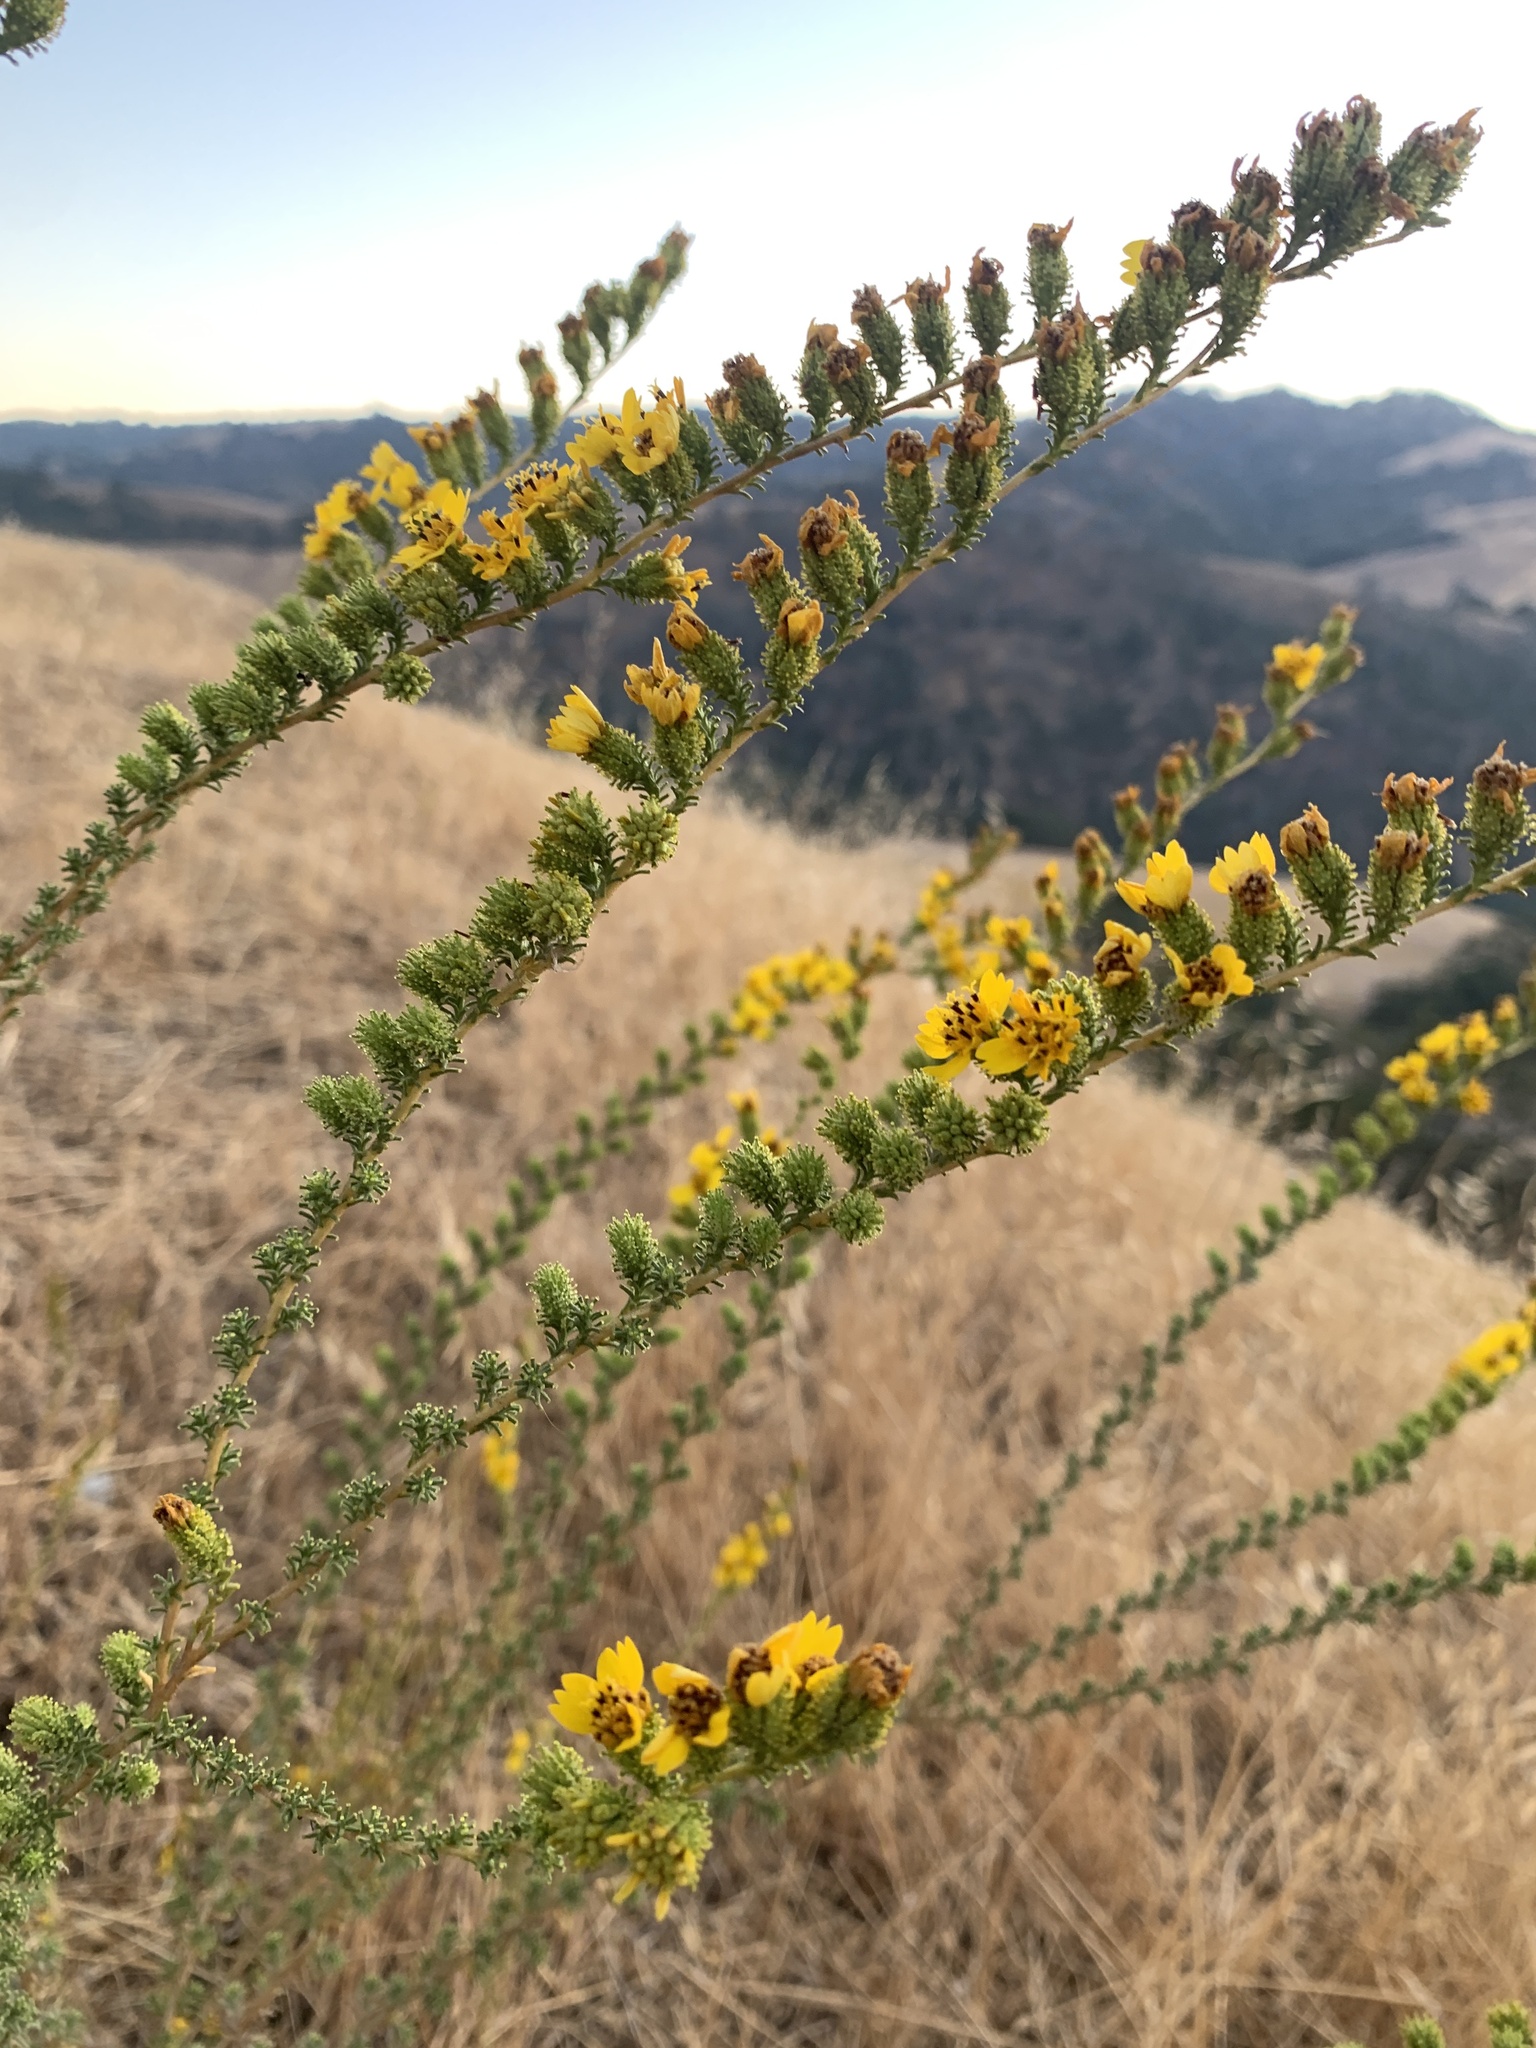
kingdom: Plantae
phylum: Tracheophyta
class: Magnoliopsida
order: Asterales
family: Asteraceae
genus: Holocarpha
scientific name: Holocarpha virgata
